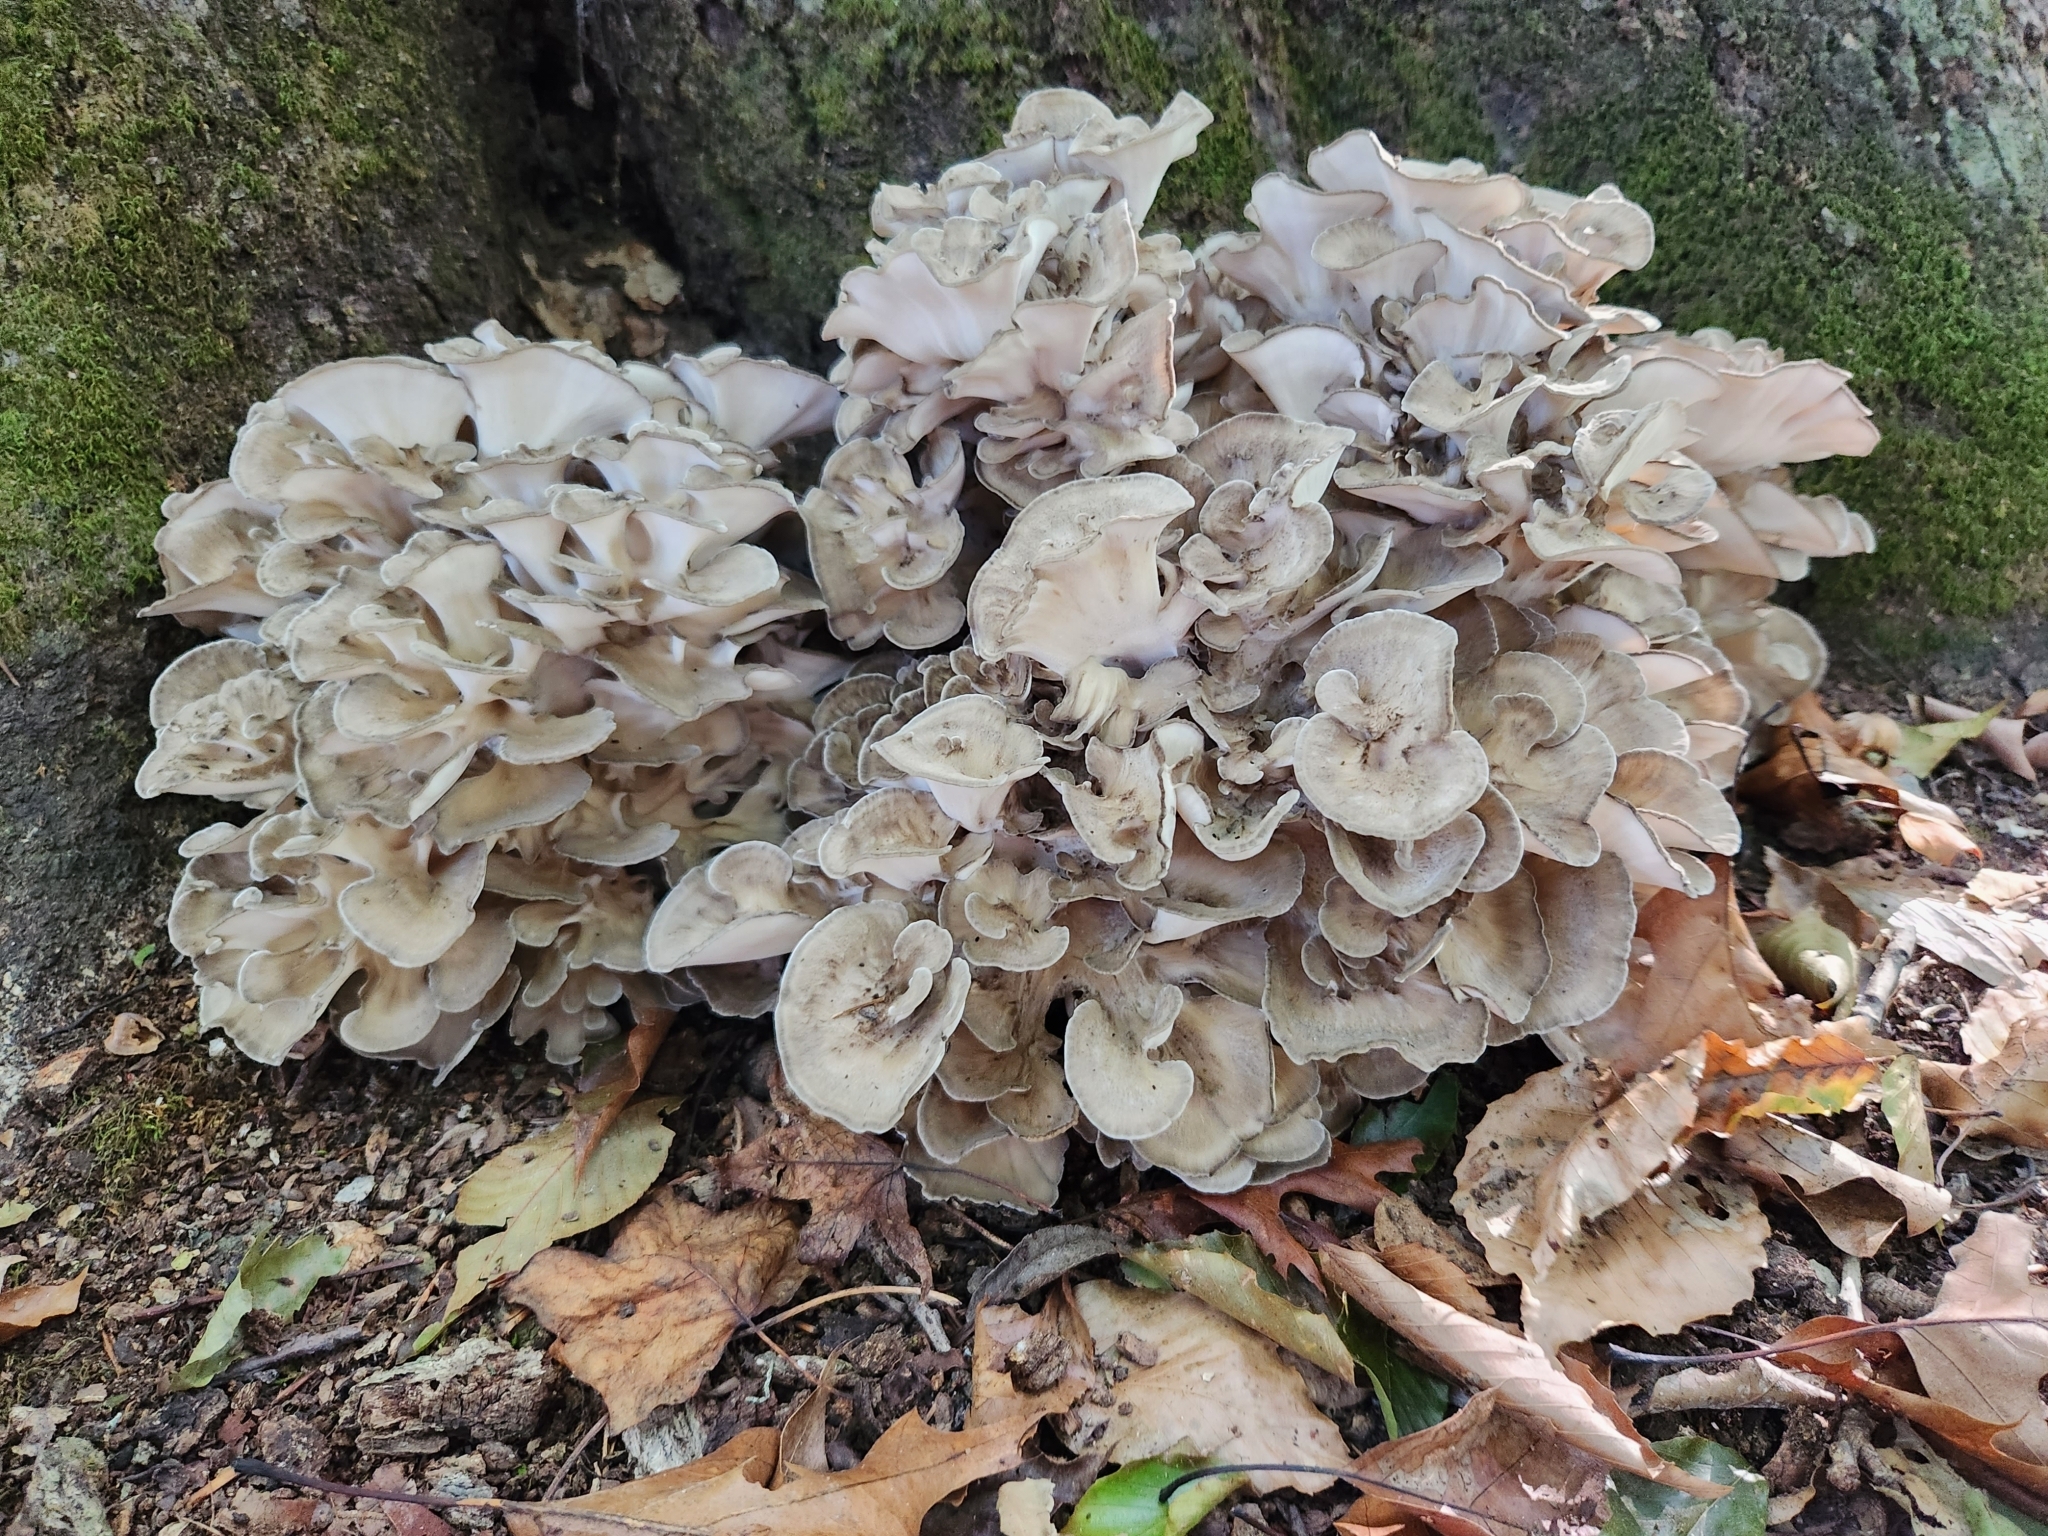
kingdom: Fungi
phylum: Basidiomycota
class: Agaricomycetes
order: Polyporales
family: Grifolaceae
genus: Grifola
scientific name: Grifola frondosa
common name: Hen of the woods
